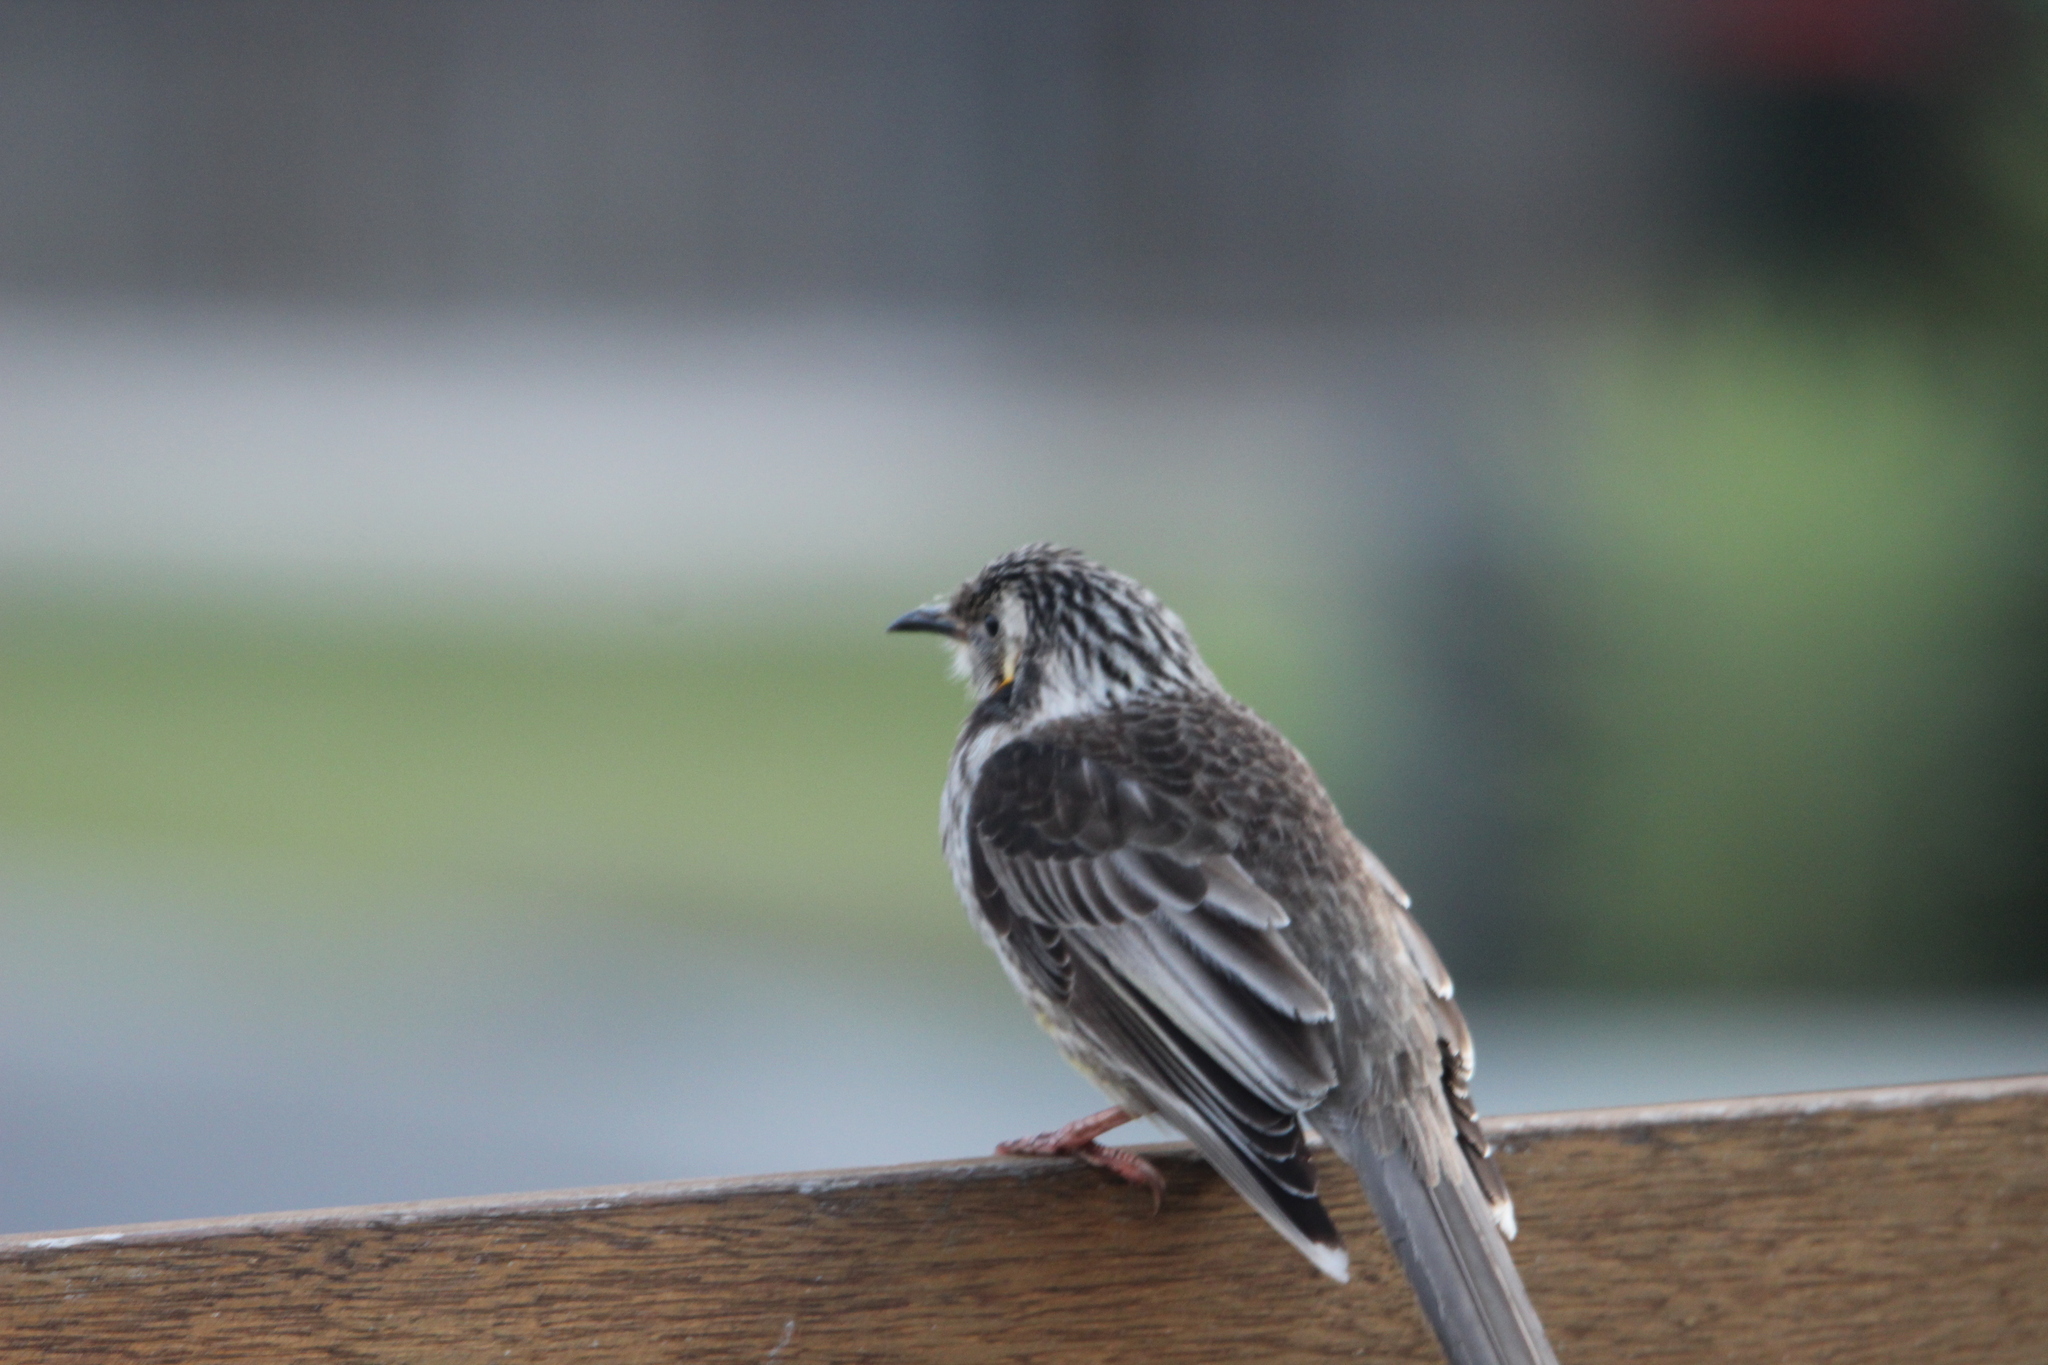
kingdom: Animalia
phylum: Chordata
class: Aves
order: Passeriformes
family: Meliphagidae
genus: Anthochaera
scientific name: Anthochaera paradoxa
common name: Yellow wattlebird
